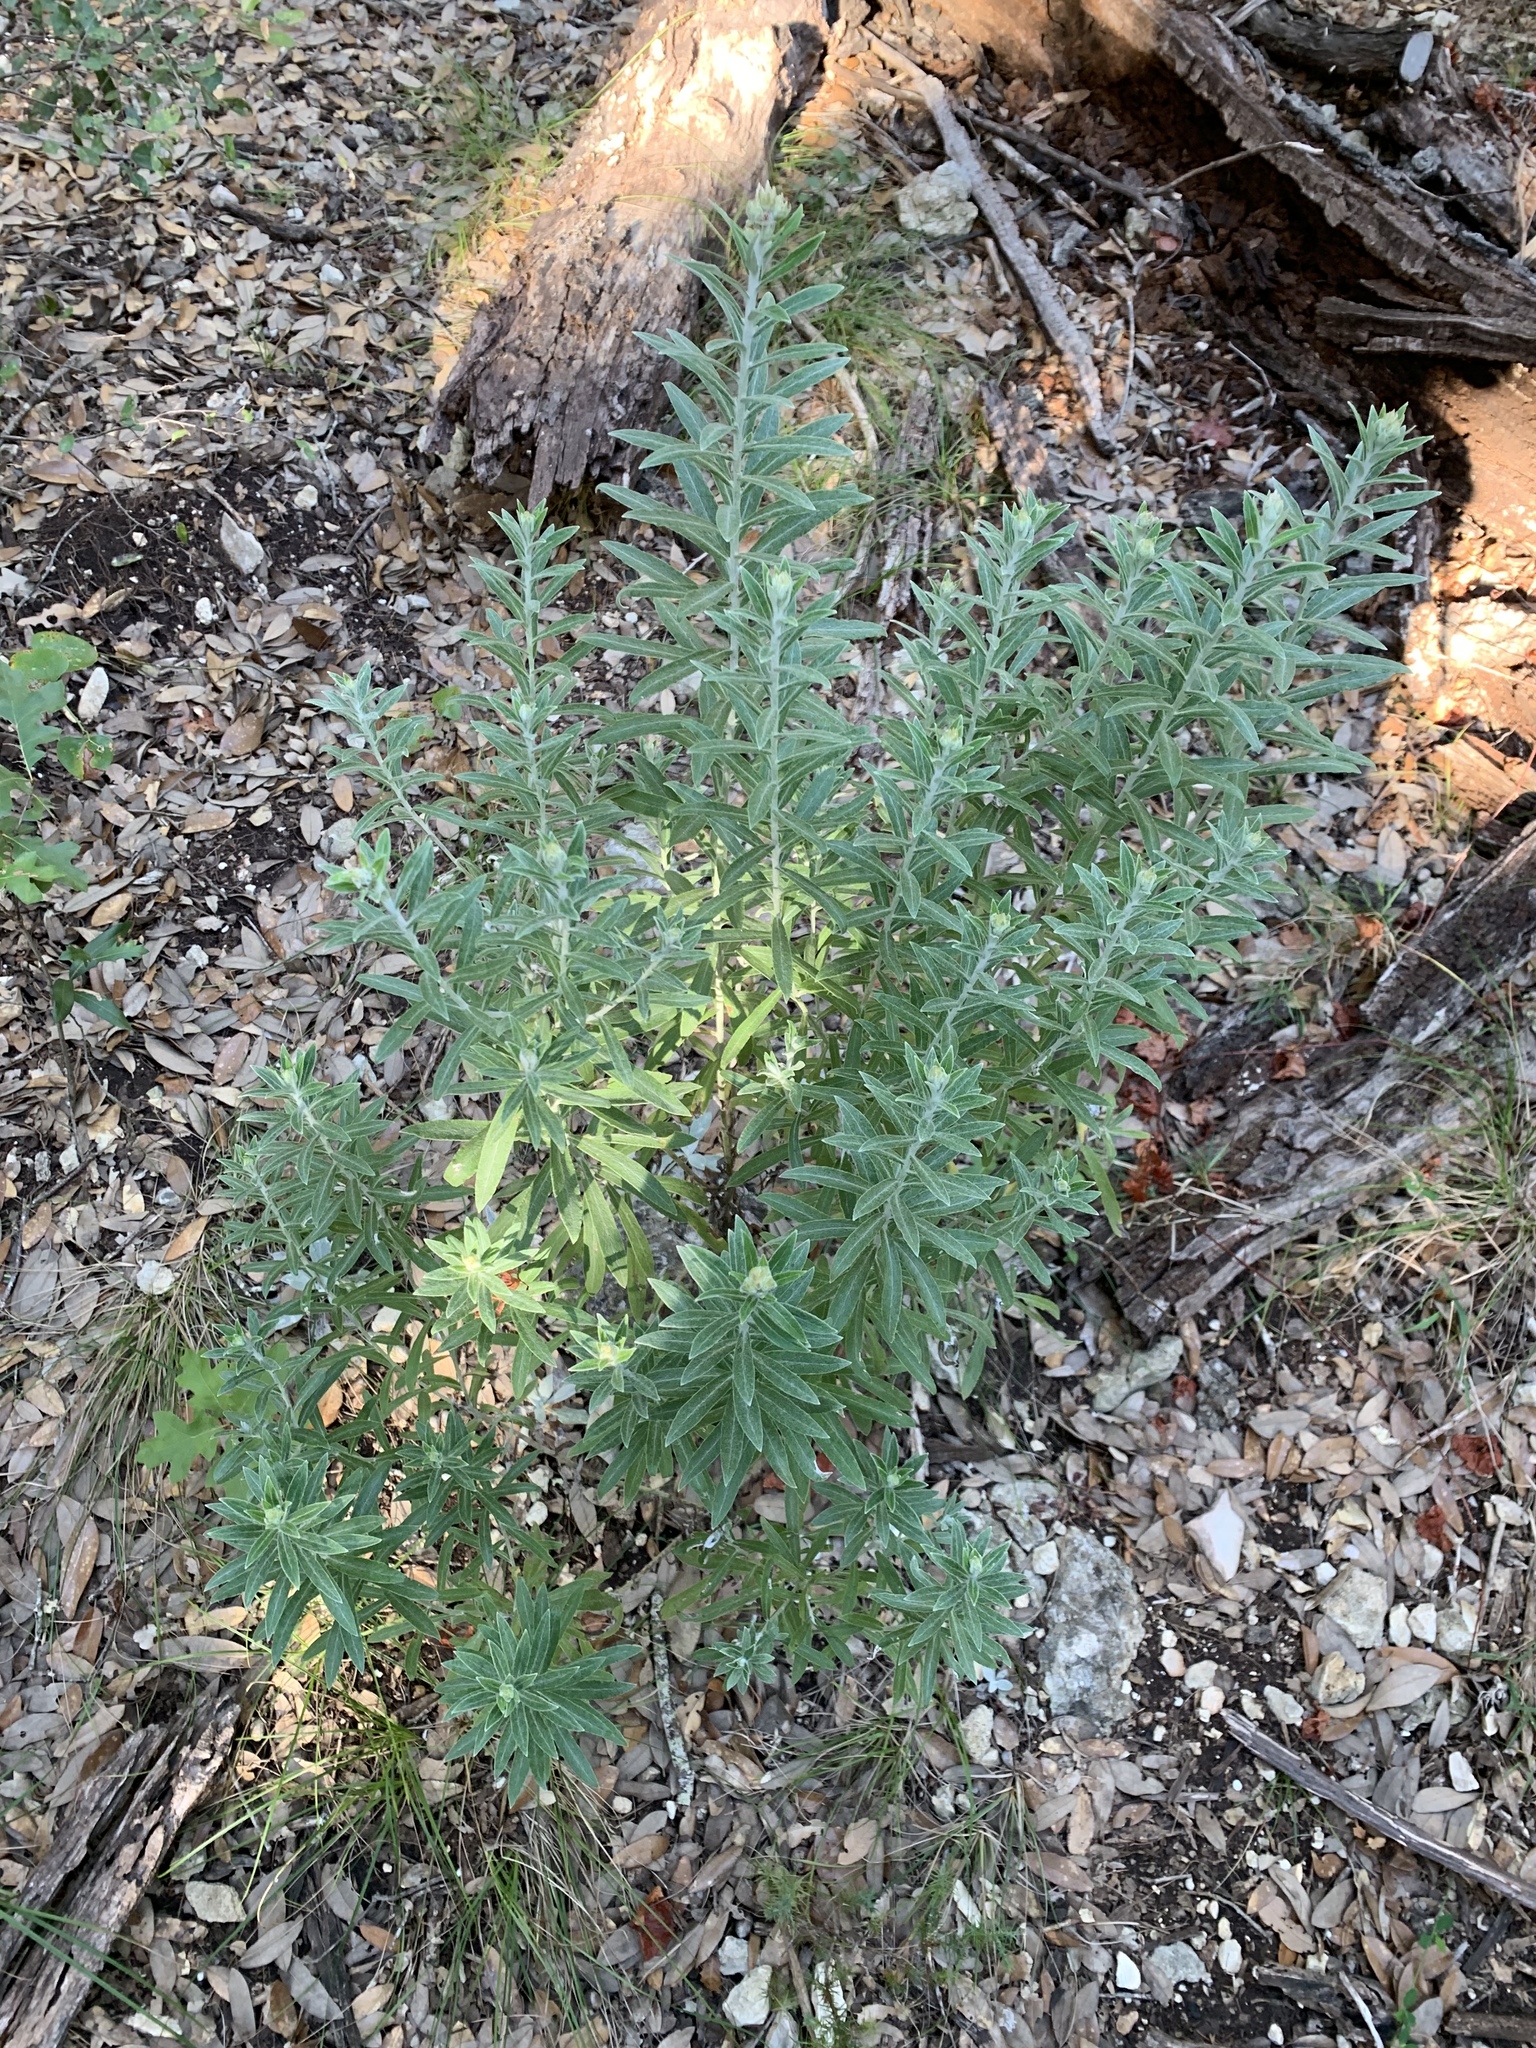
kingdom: Plantae
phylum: Tracheophyta
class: Magnoliopsida
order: Asterales
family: Asteraceae
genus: Pseudognaphalium
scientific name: Pseudognaphalium obtusifolium
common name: Eastern rabbit-tobacco
